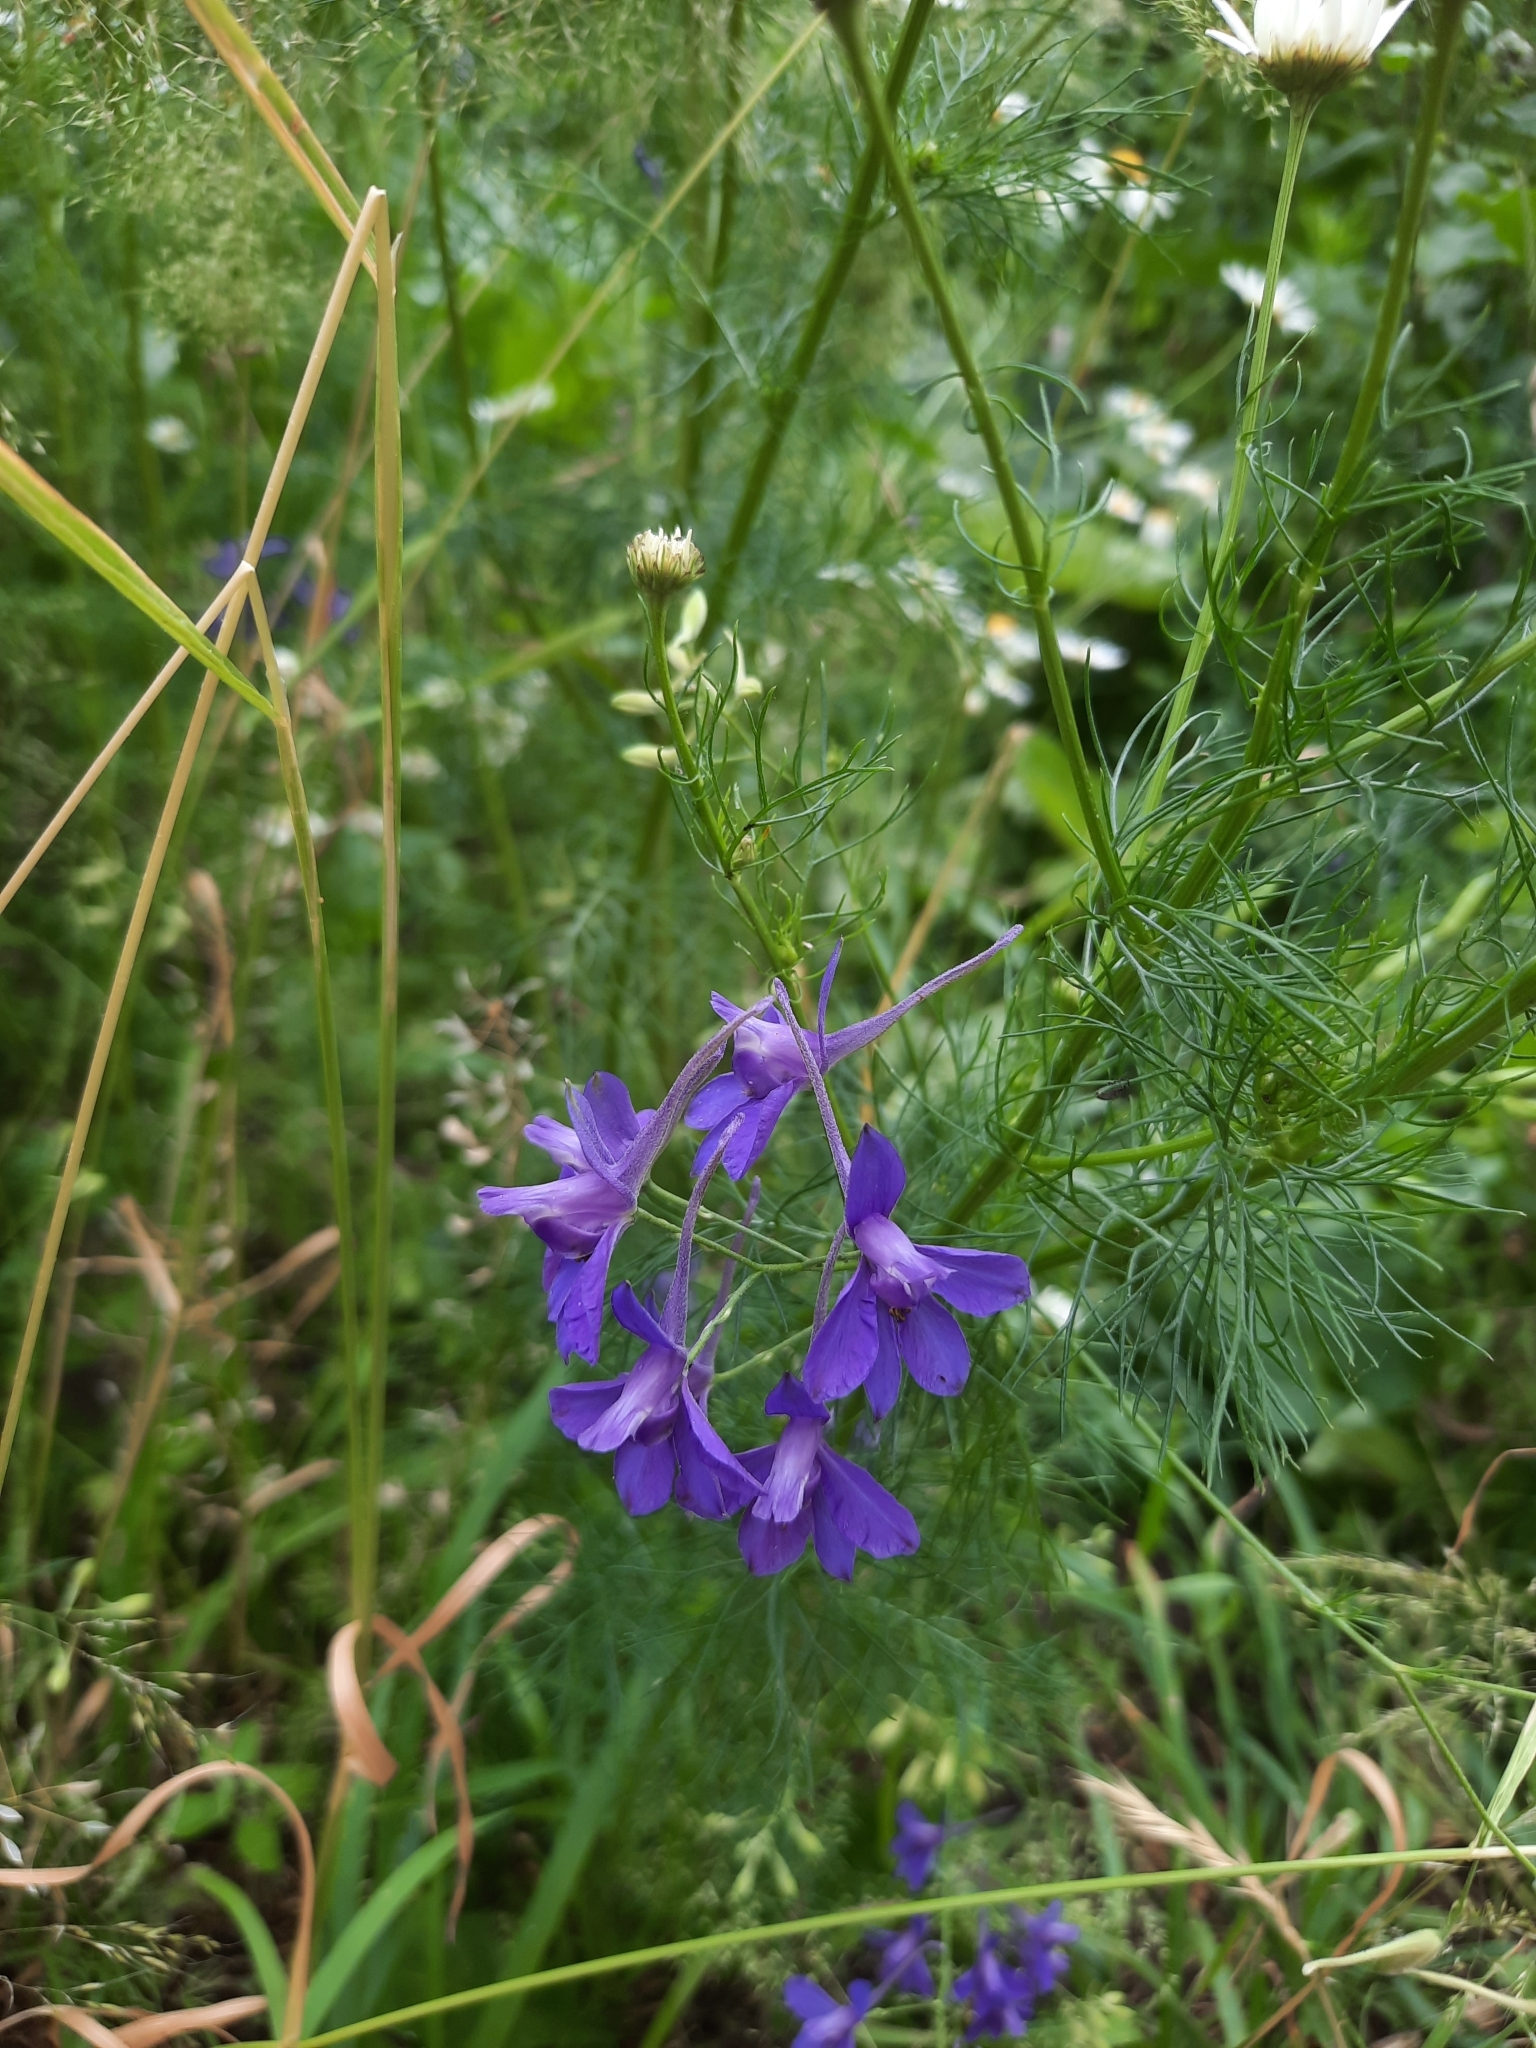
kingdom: Plantae
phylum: Tracheophyta
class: Magnoliopsida
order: Ranunculales
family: Ranunculaceae
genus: Delphinium
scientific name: Delphinium consolida
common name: Branching larkspur
